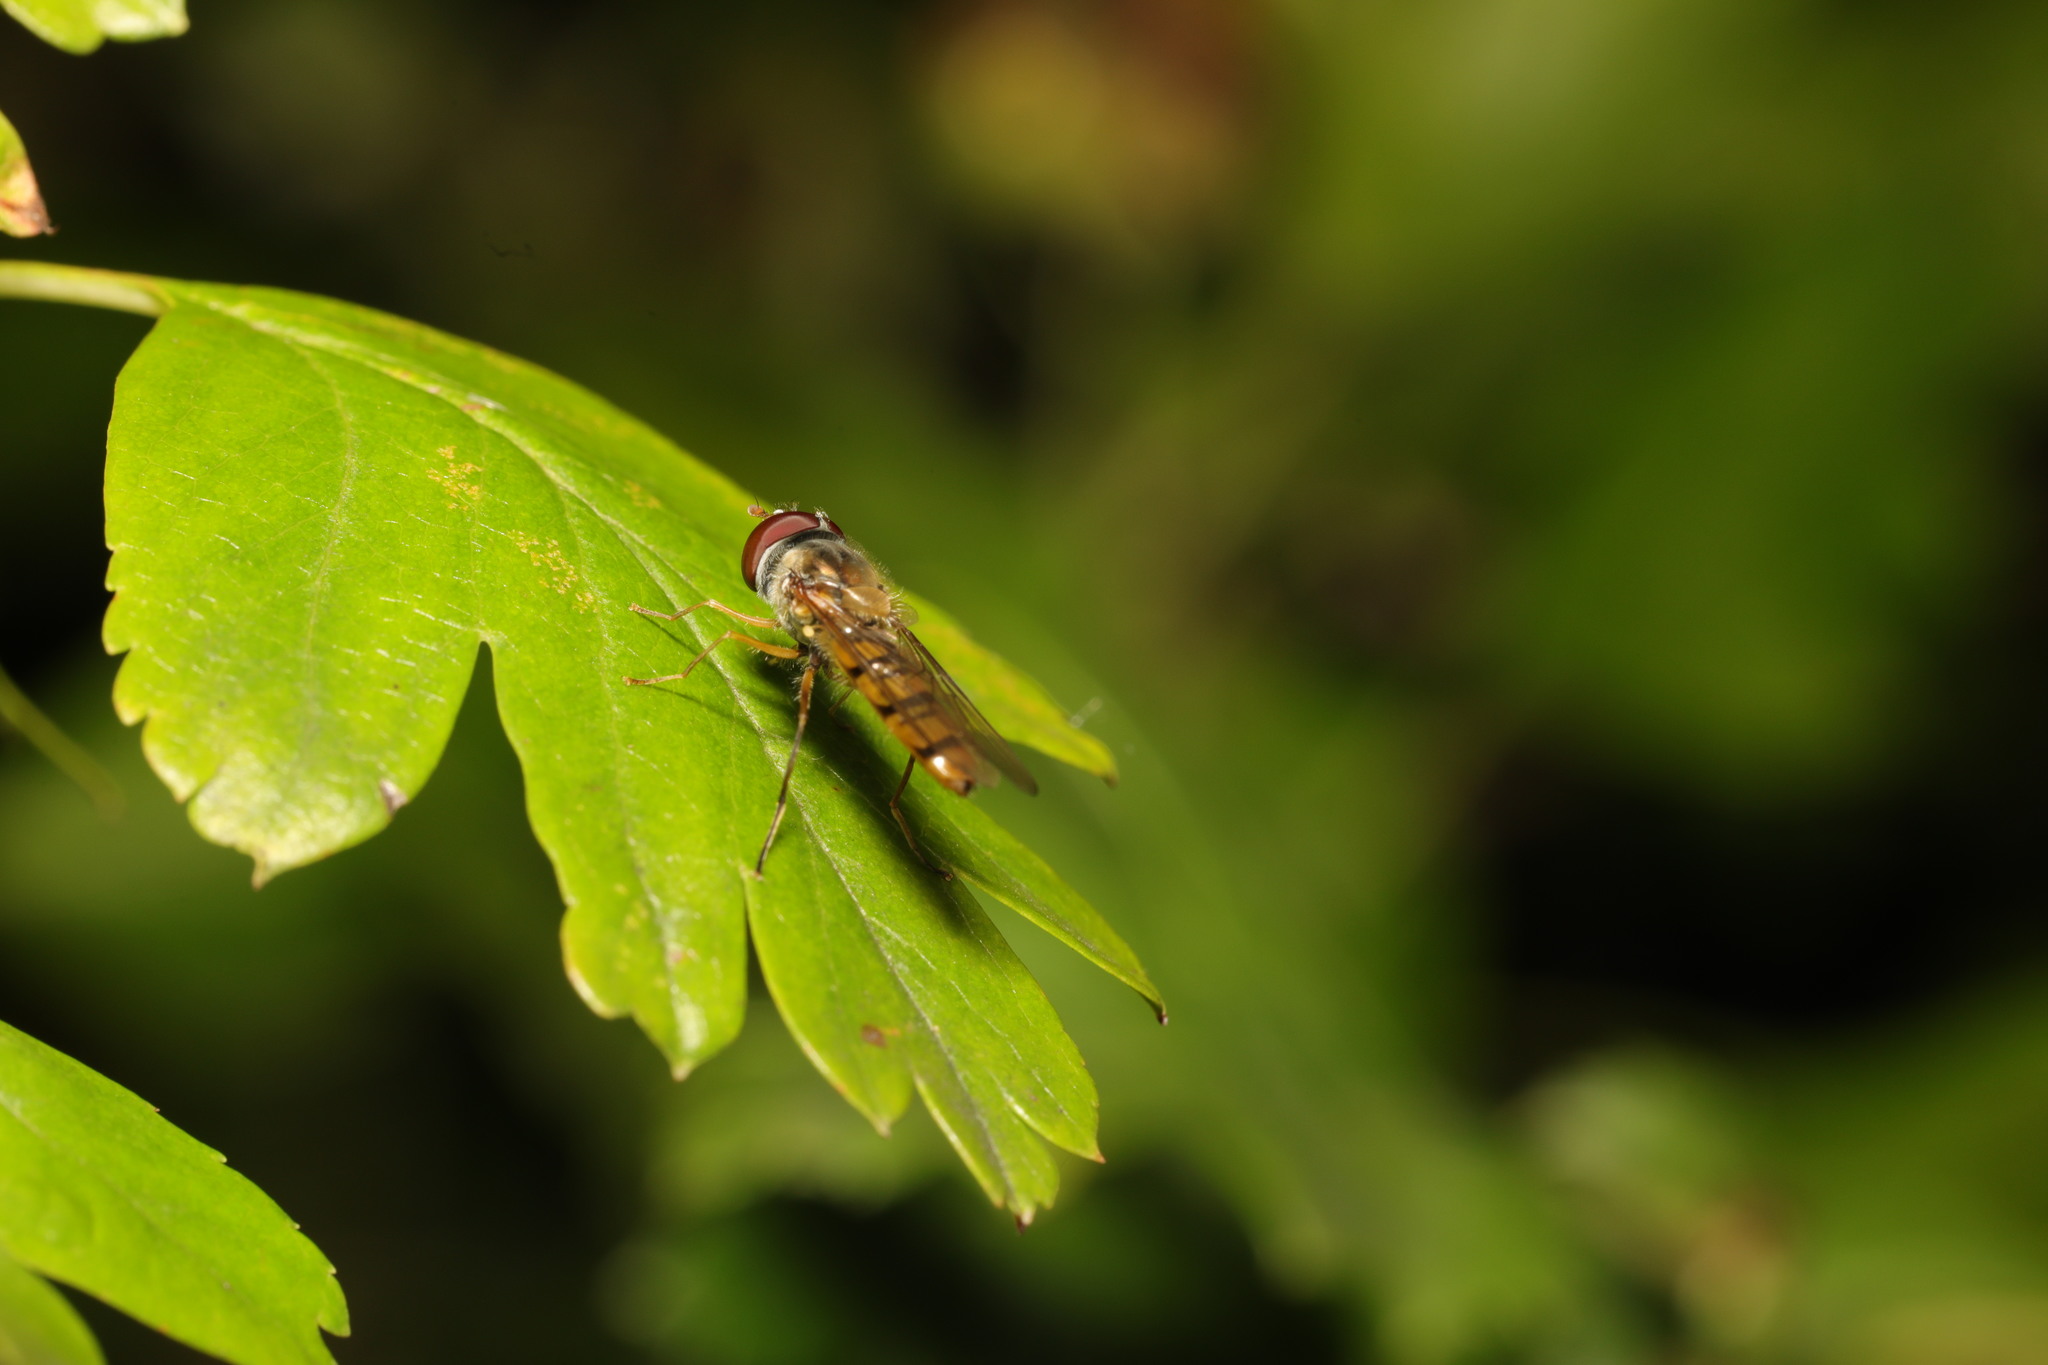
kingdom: Animalia
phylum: Arthropoda
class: Insecta
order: Diptera
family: Syrphidae
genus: Episyrphus
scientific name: Episyrphus balteatus
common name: Marmalade hoverfly
